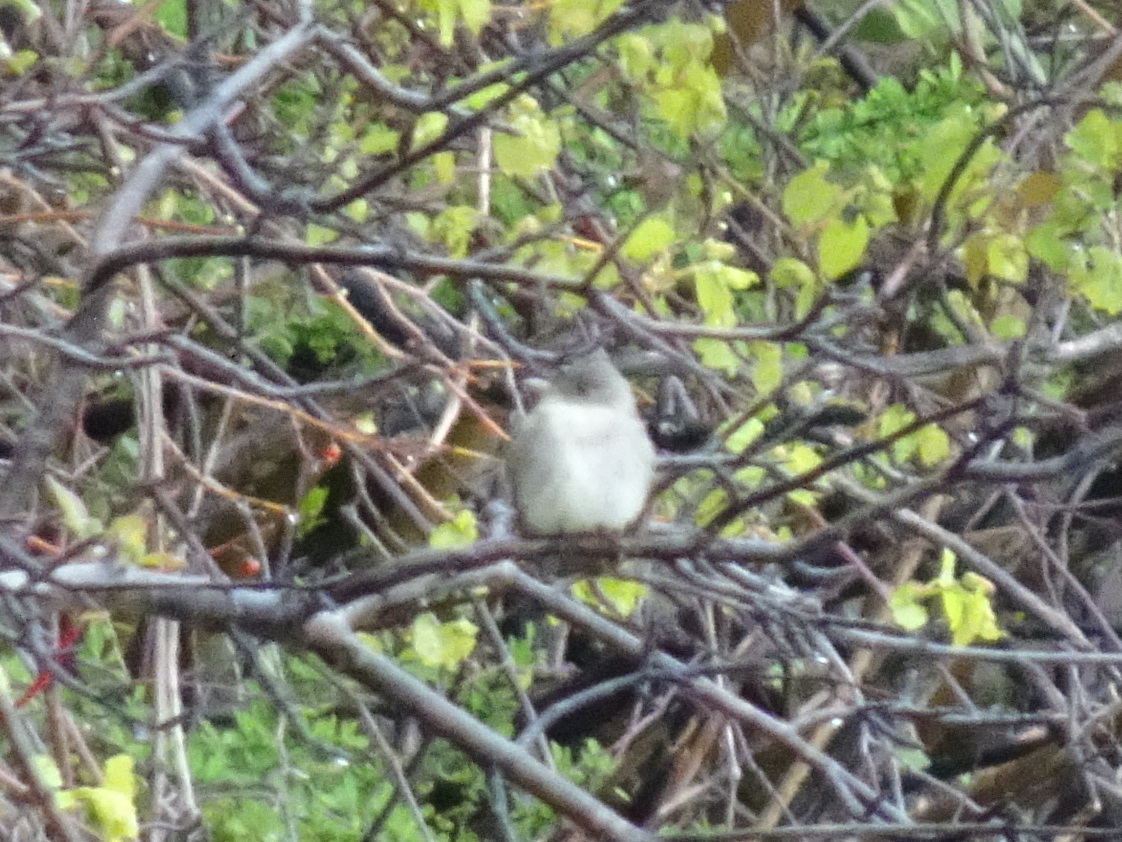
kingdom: Animalia
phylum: Chordata
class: Aves
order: Passeriformes
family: Tyrannidae
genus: Contopus
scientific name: Contopus virens
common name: Eastern wood-pewee
